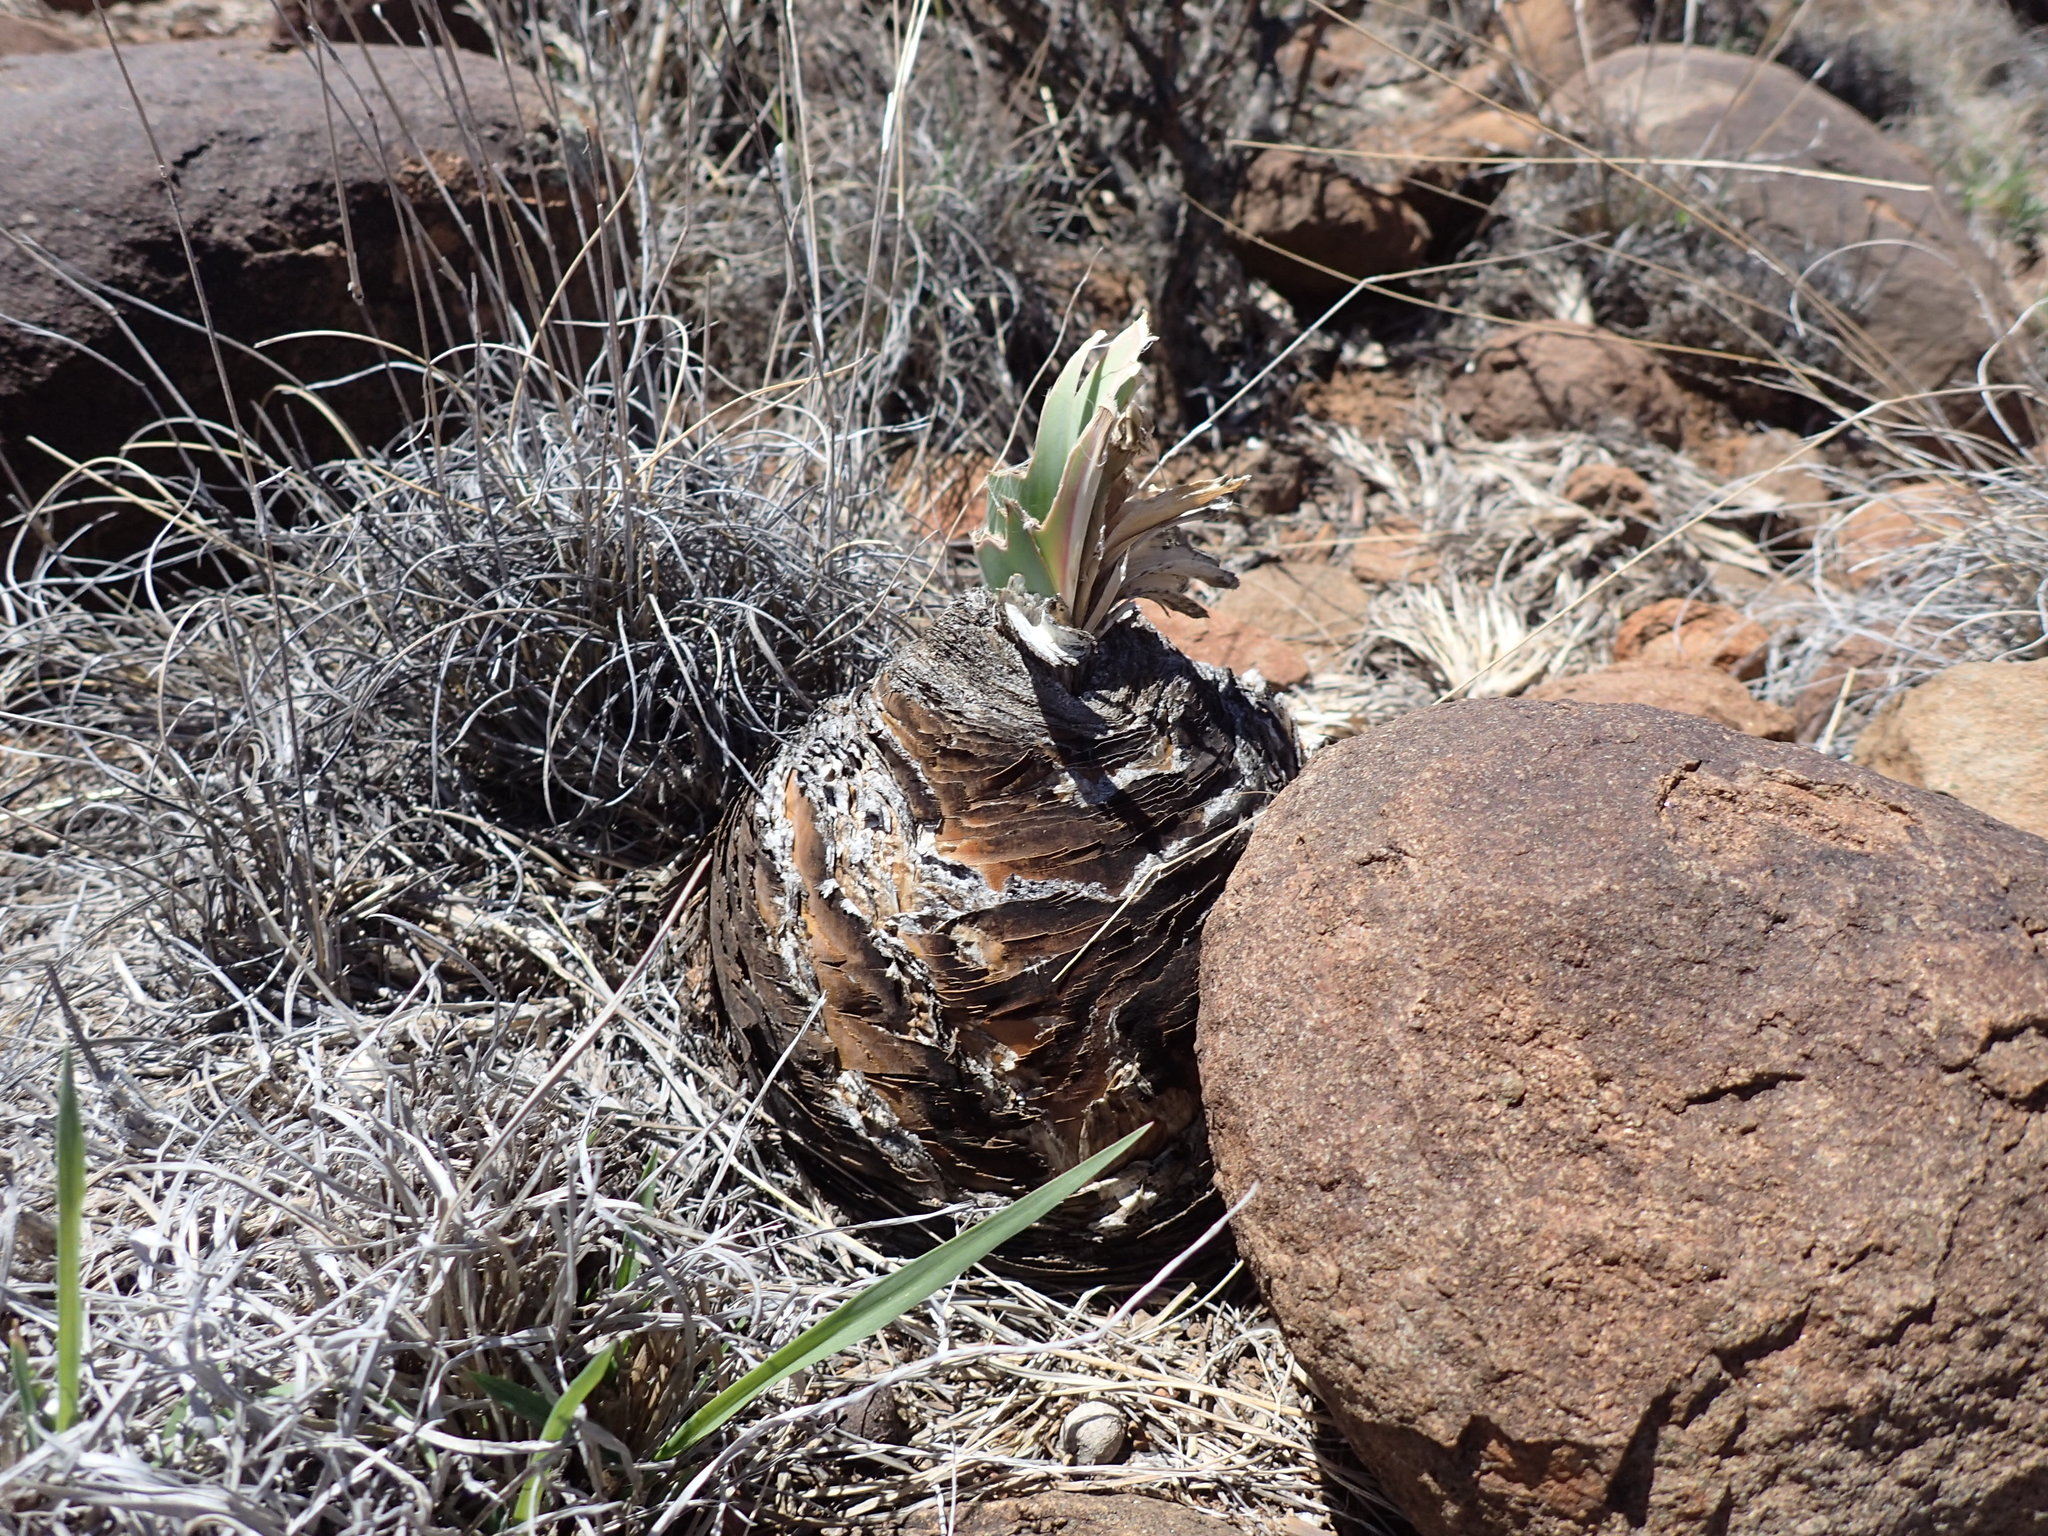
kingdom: Plantae
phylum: Tracheophyta
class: Liliopsida
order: Asparagales
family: Amaryllidaceae
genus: Boophone
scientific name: Boophone disticha
